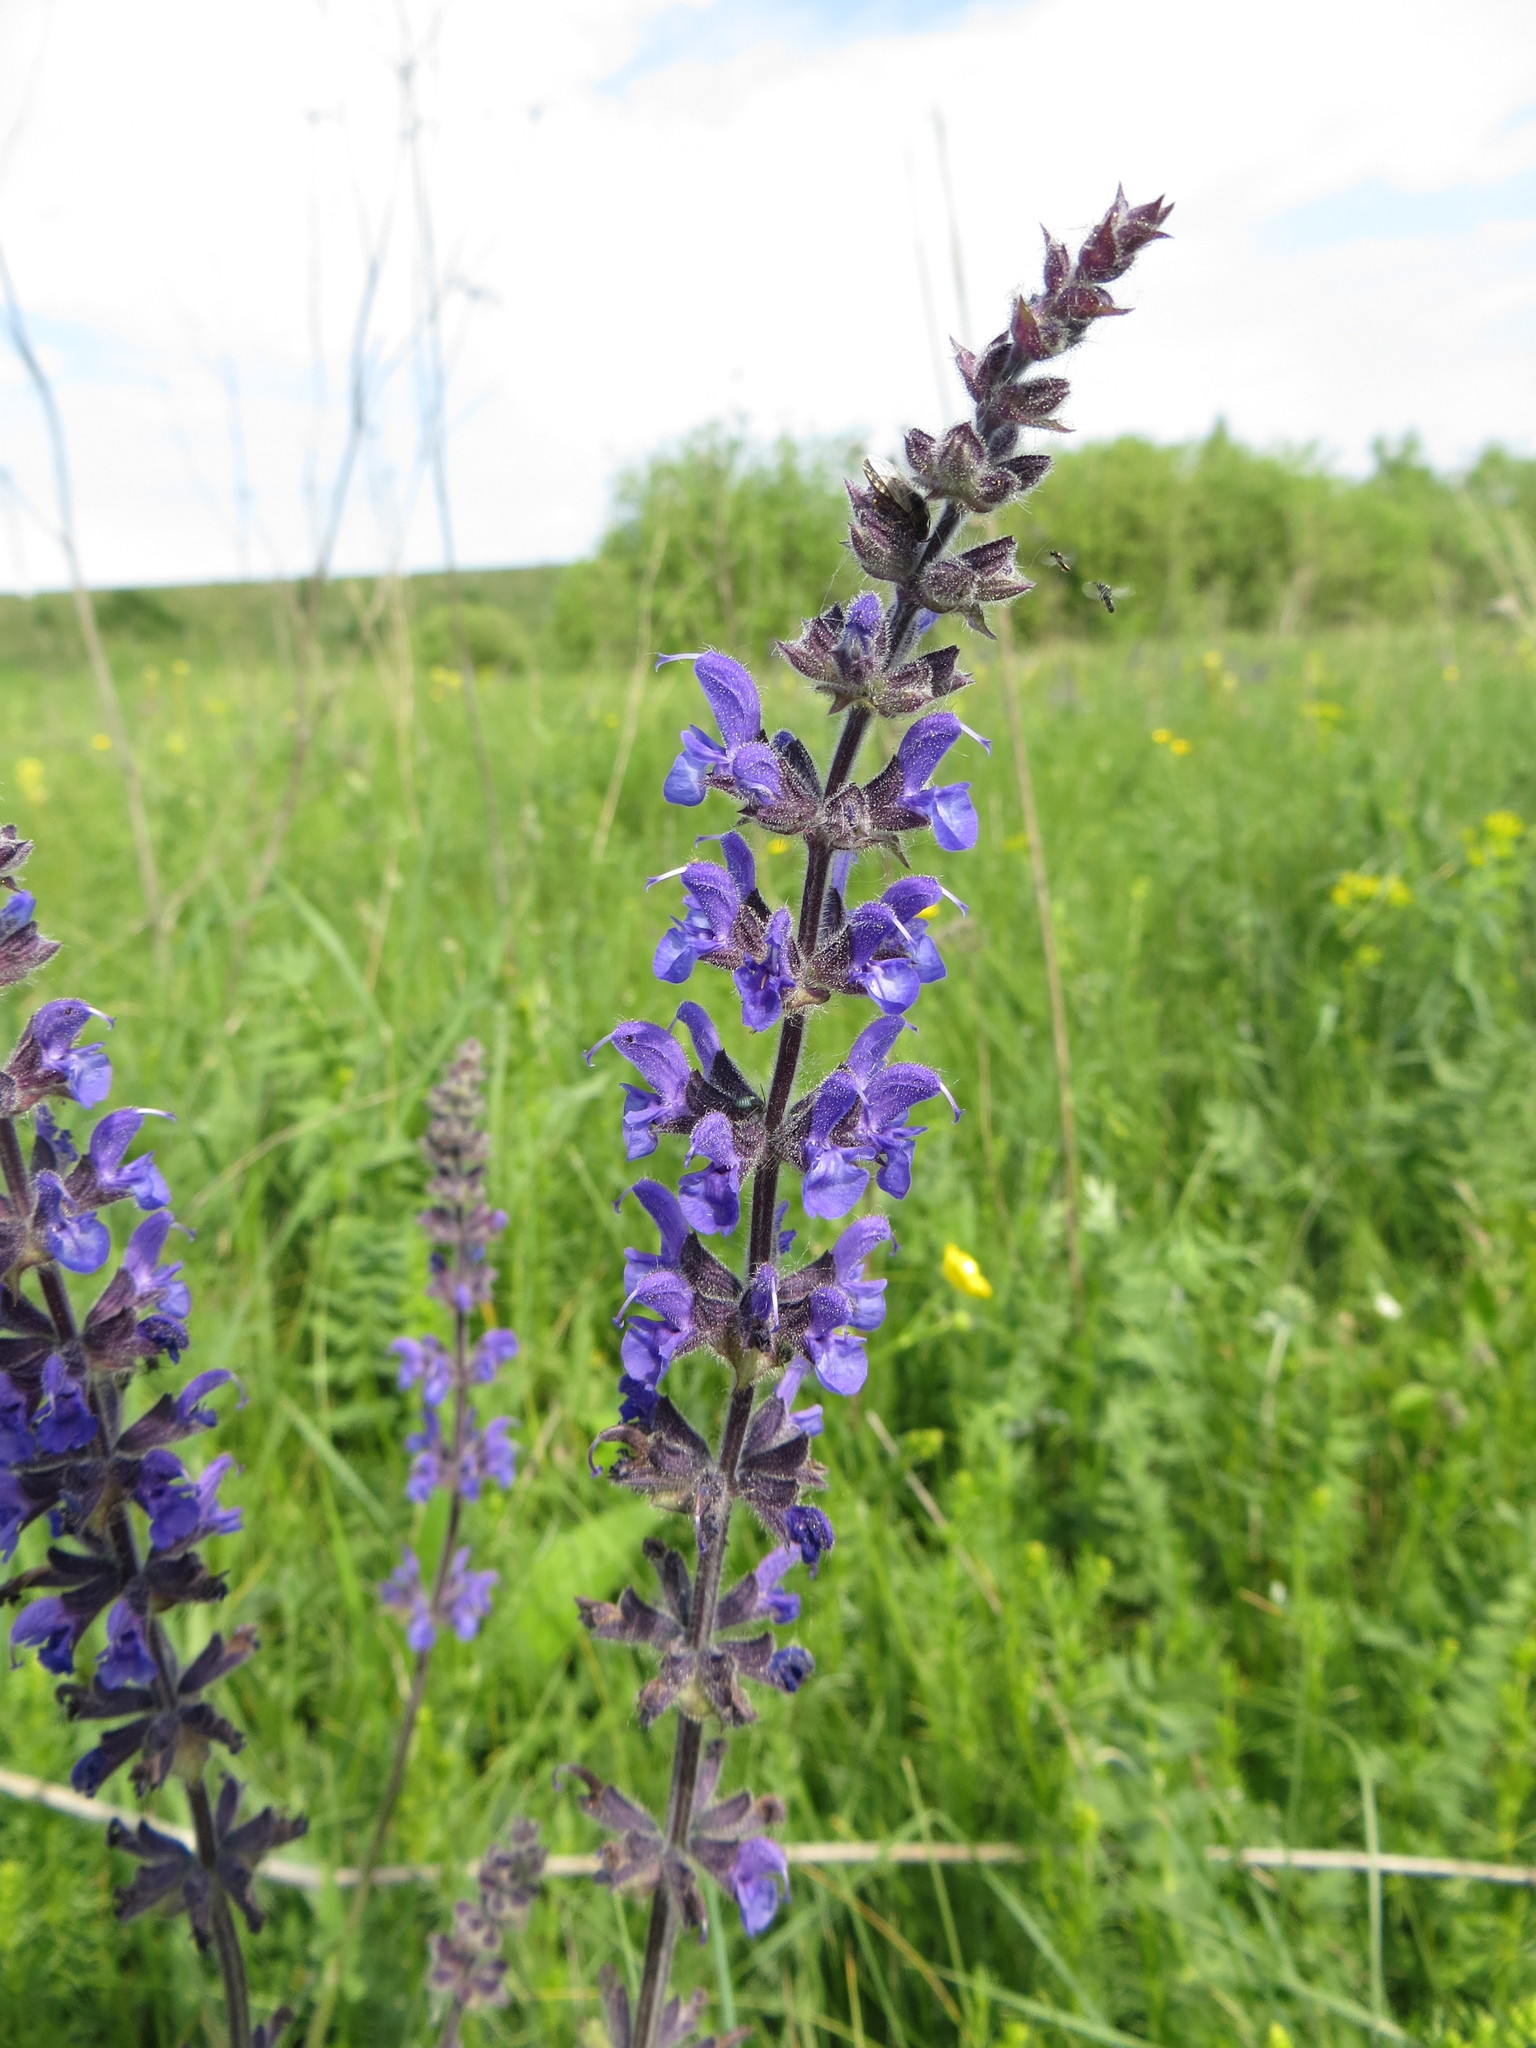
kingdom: Plantae
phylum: Tracheophyta
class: Magnoliopsida
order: Lamiales
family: Lamiaceae
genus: Salvia
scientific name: Salvia dumetorum
